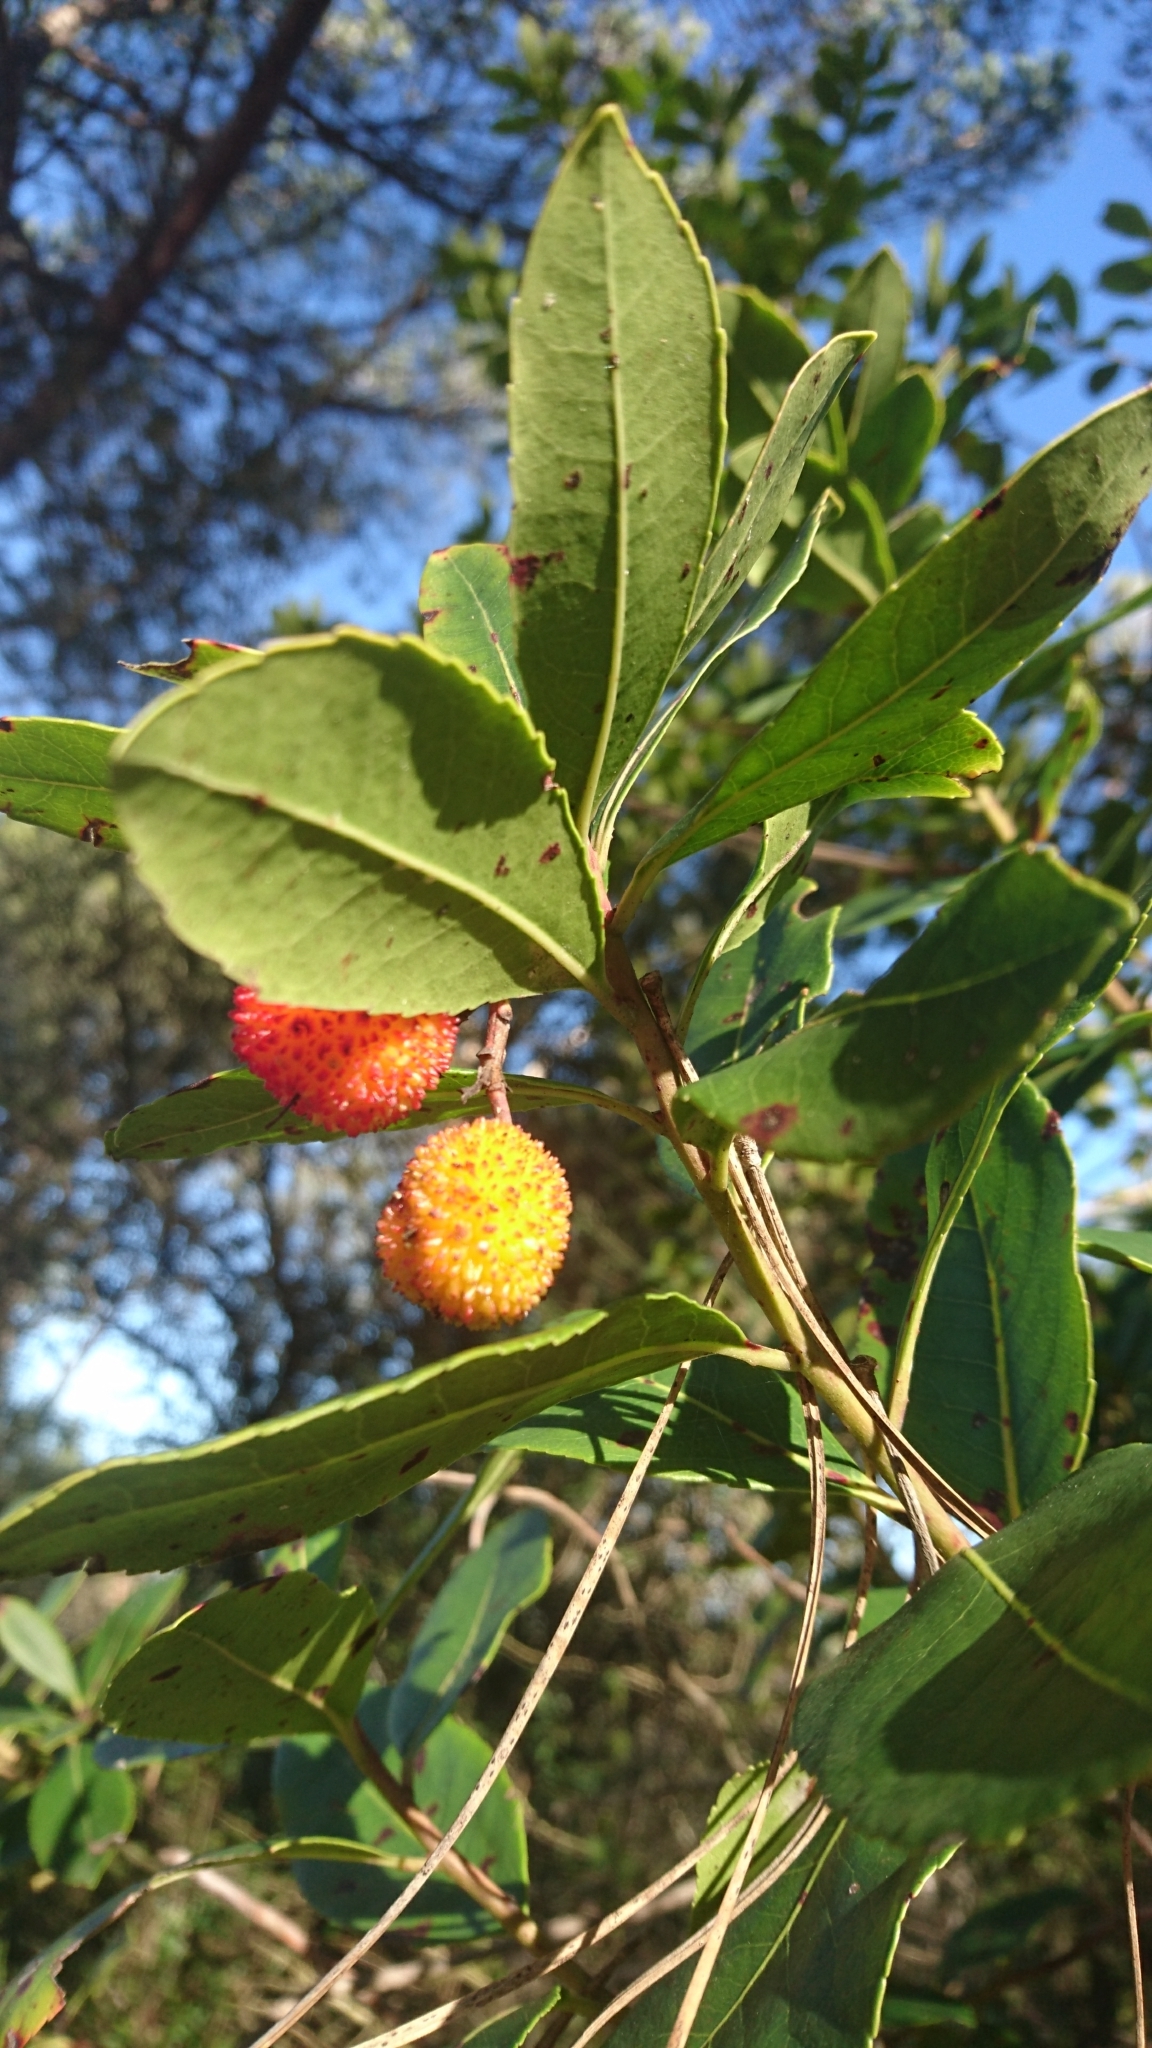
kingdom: Plantae
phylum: Tracheophyta
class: Magnoliopsida
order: Ericales
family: Ericaceae
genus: Arbutus
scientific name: Arbutus unedo
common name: Strawberry-tree
